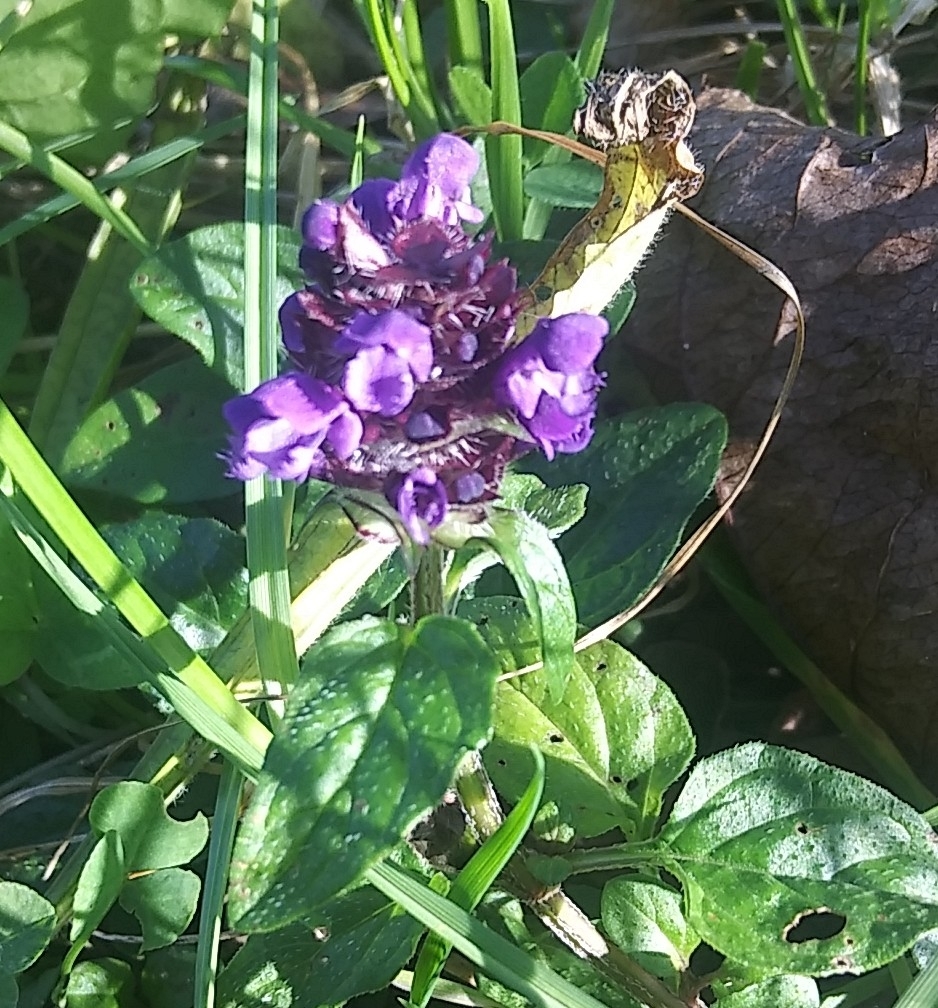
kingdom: Plantae
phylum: Tracheophyta
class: Magnoliopsida
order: Lamiales
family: Lamiaceae
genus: Prunella
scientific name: Prunella vulgaris
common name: Heal-all
